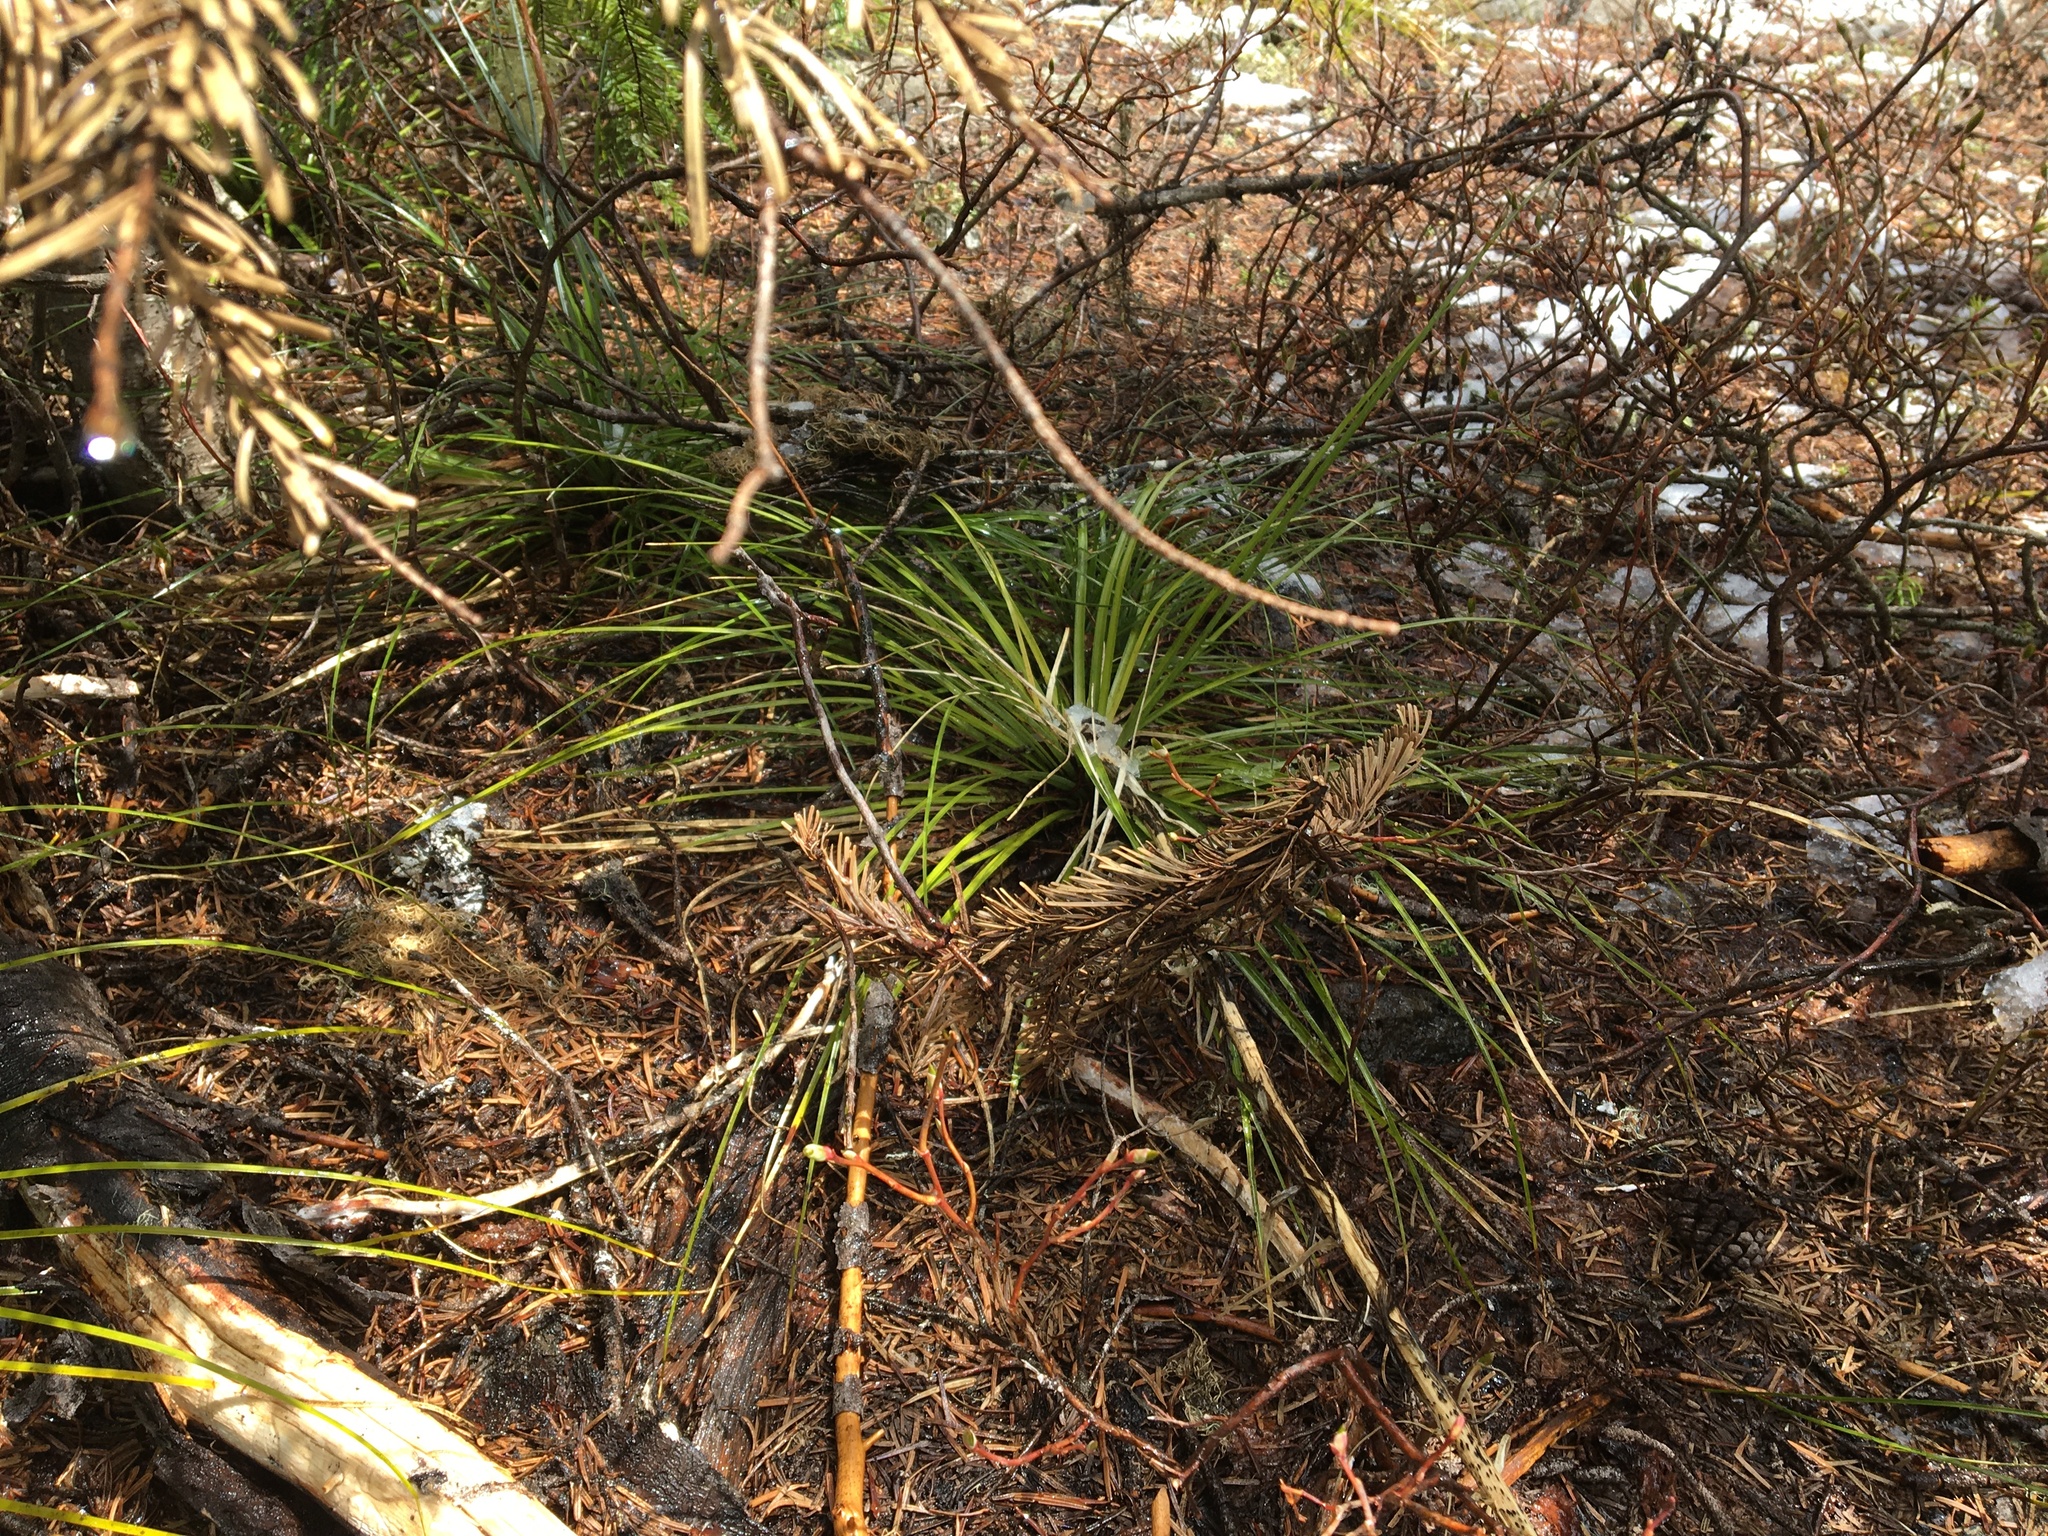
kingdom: Plantae
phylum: Tracheophyta
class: Liliopsida
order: Liliales
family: Melanthiaceae
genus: Xerophyllum
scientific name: Xerophyllum tenax
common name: Bear-grass
